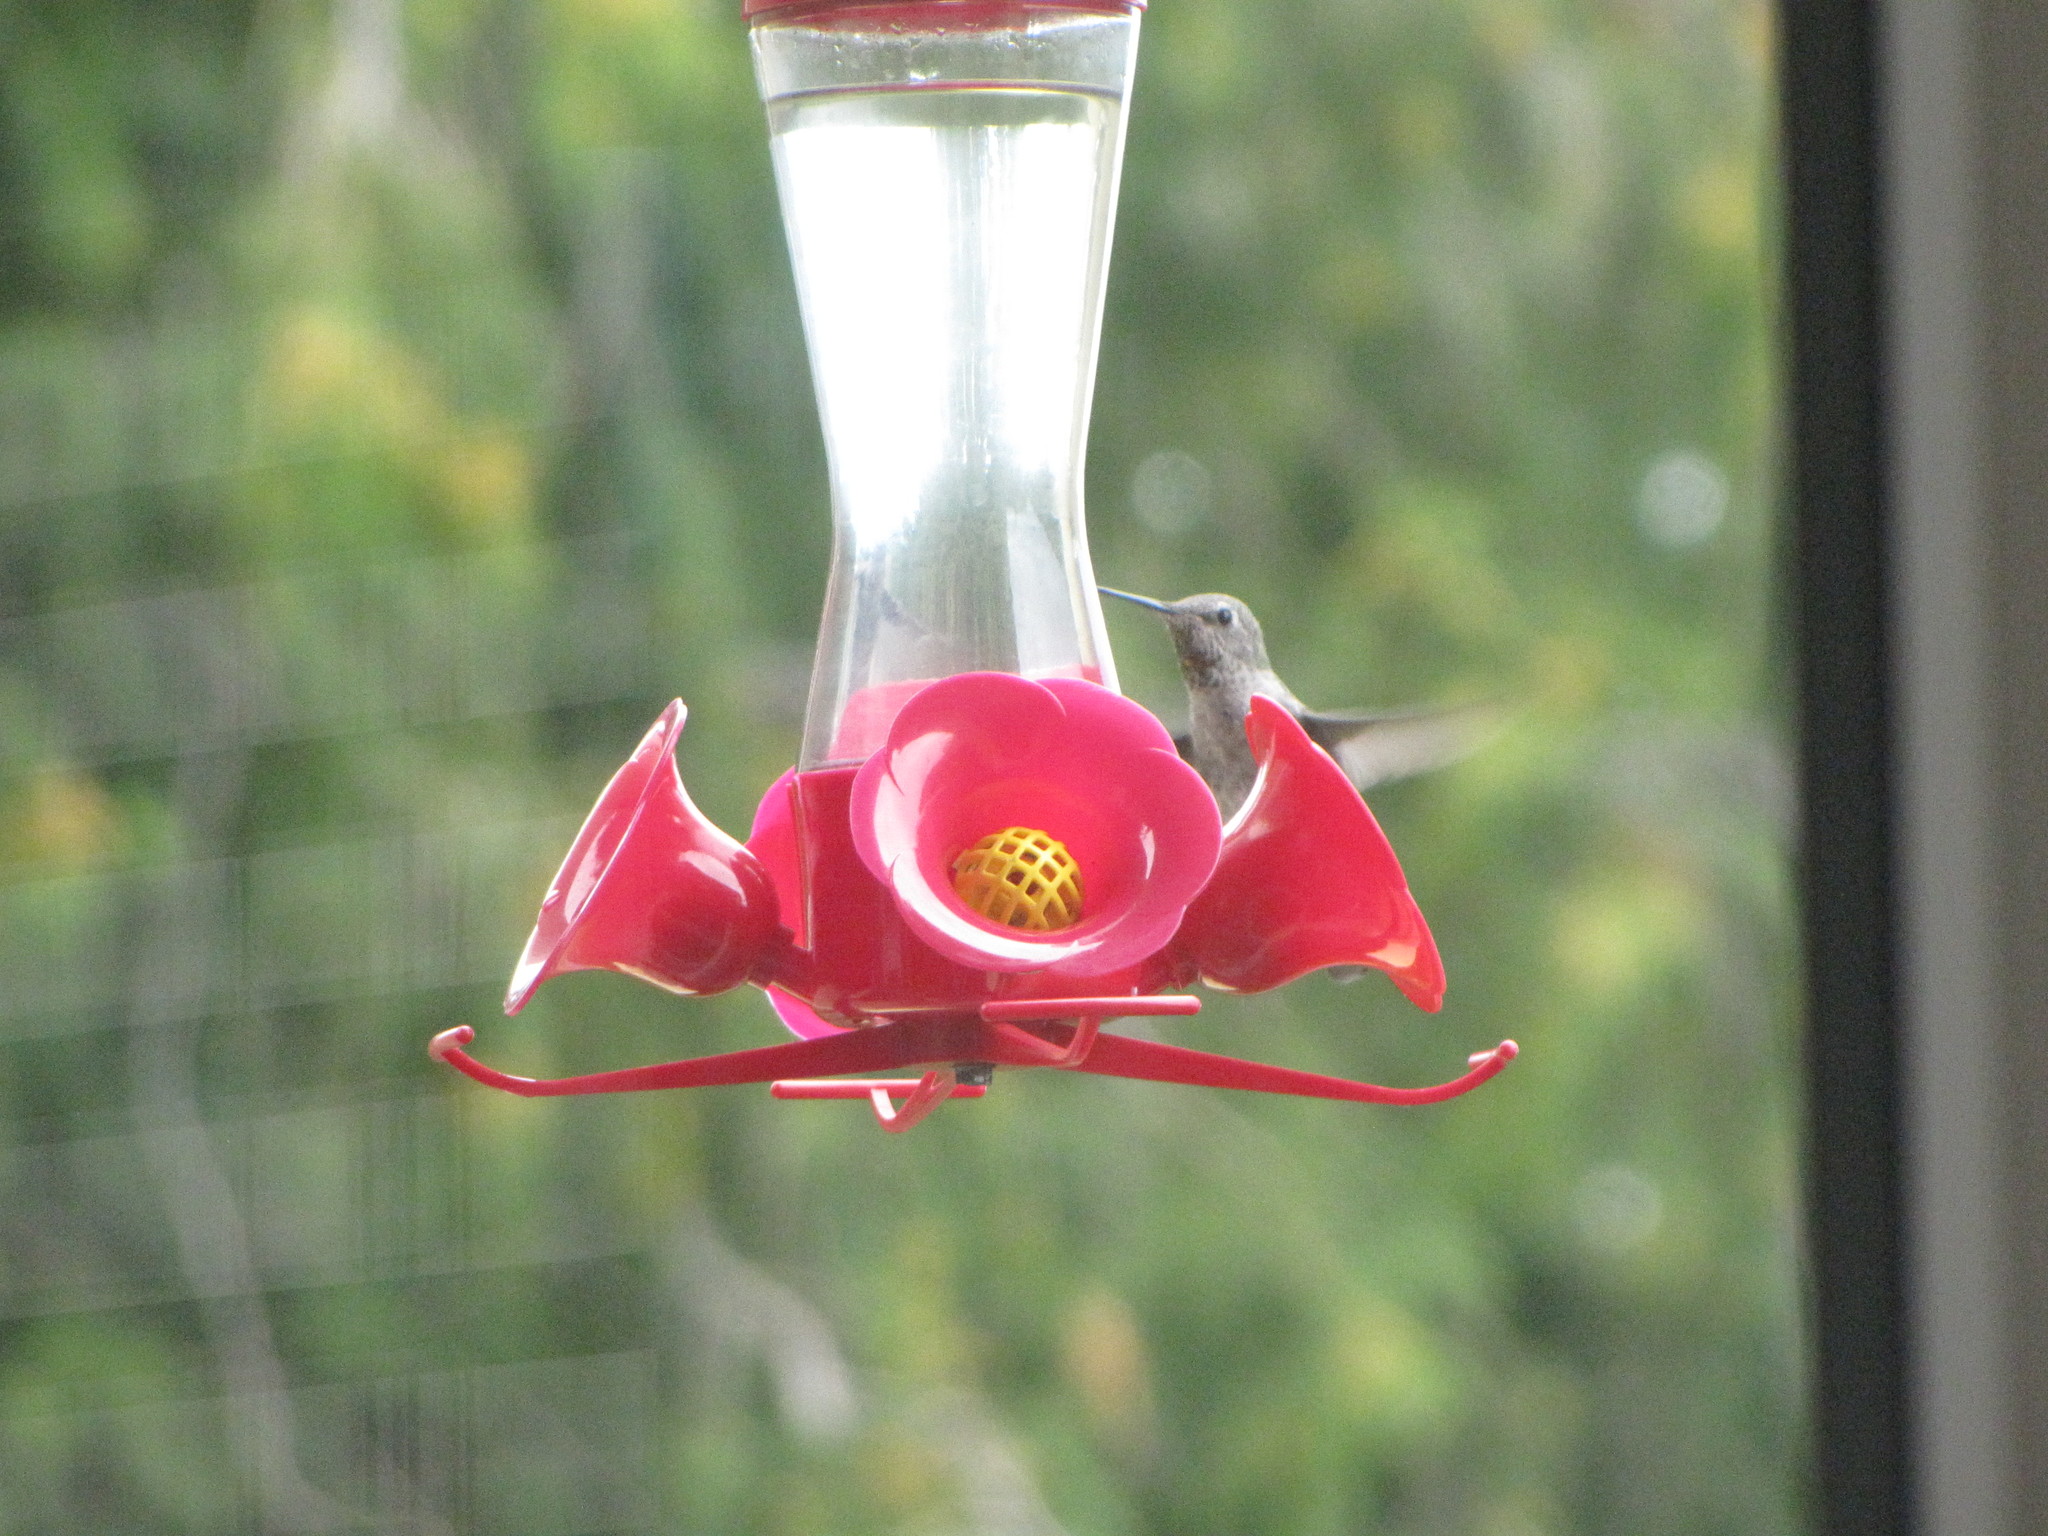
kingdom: Animalia
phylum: Chordata
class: Aves
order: Apodiformes
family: Trochilidae
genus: Calypte
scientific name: Calypte anna
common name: Anna's hummingbird
